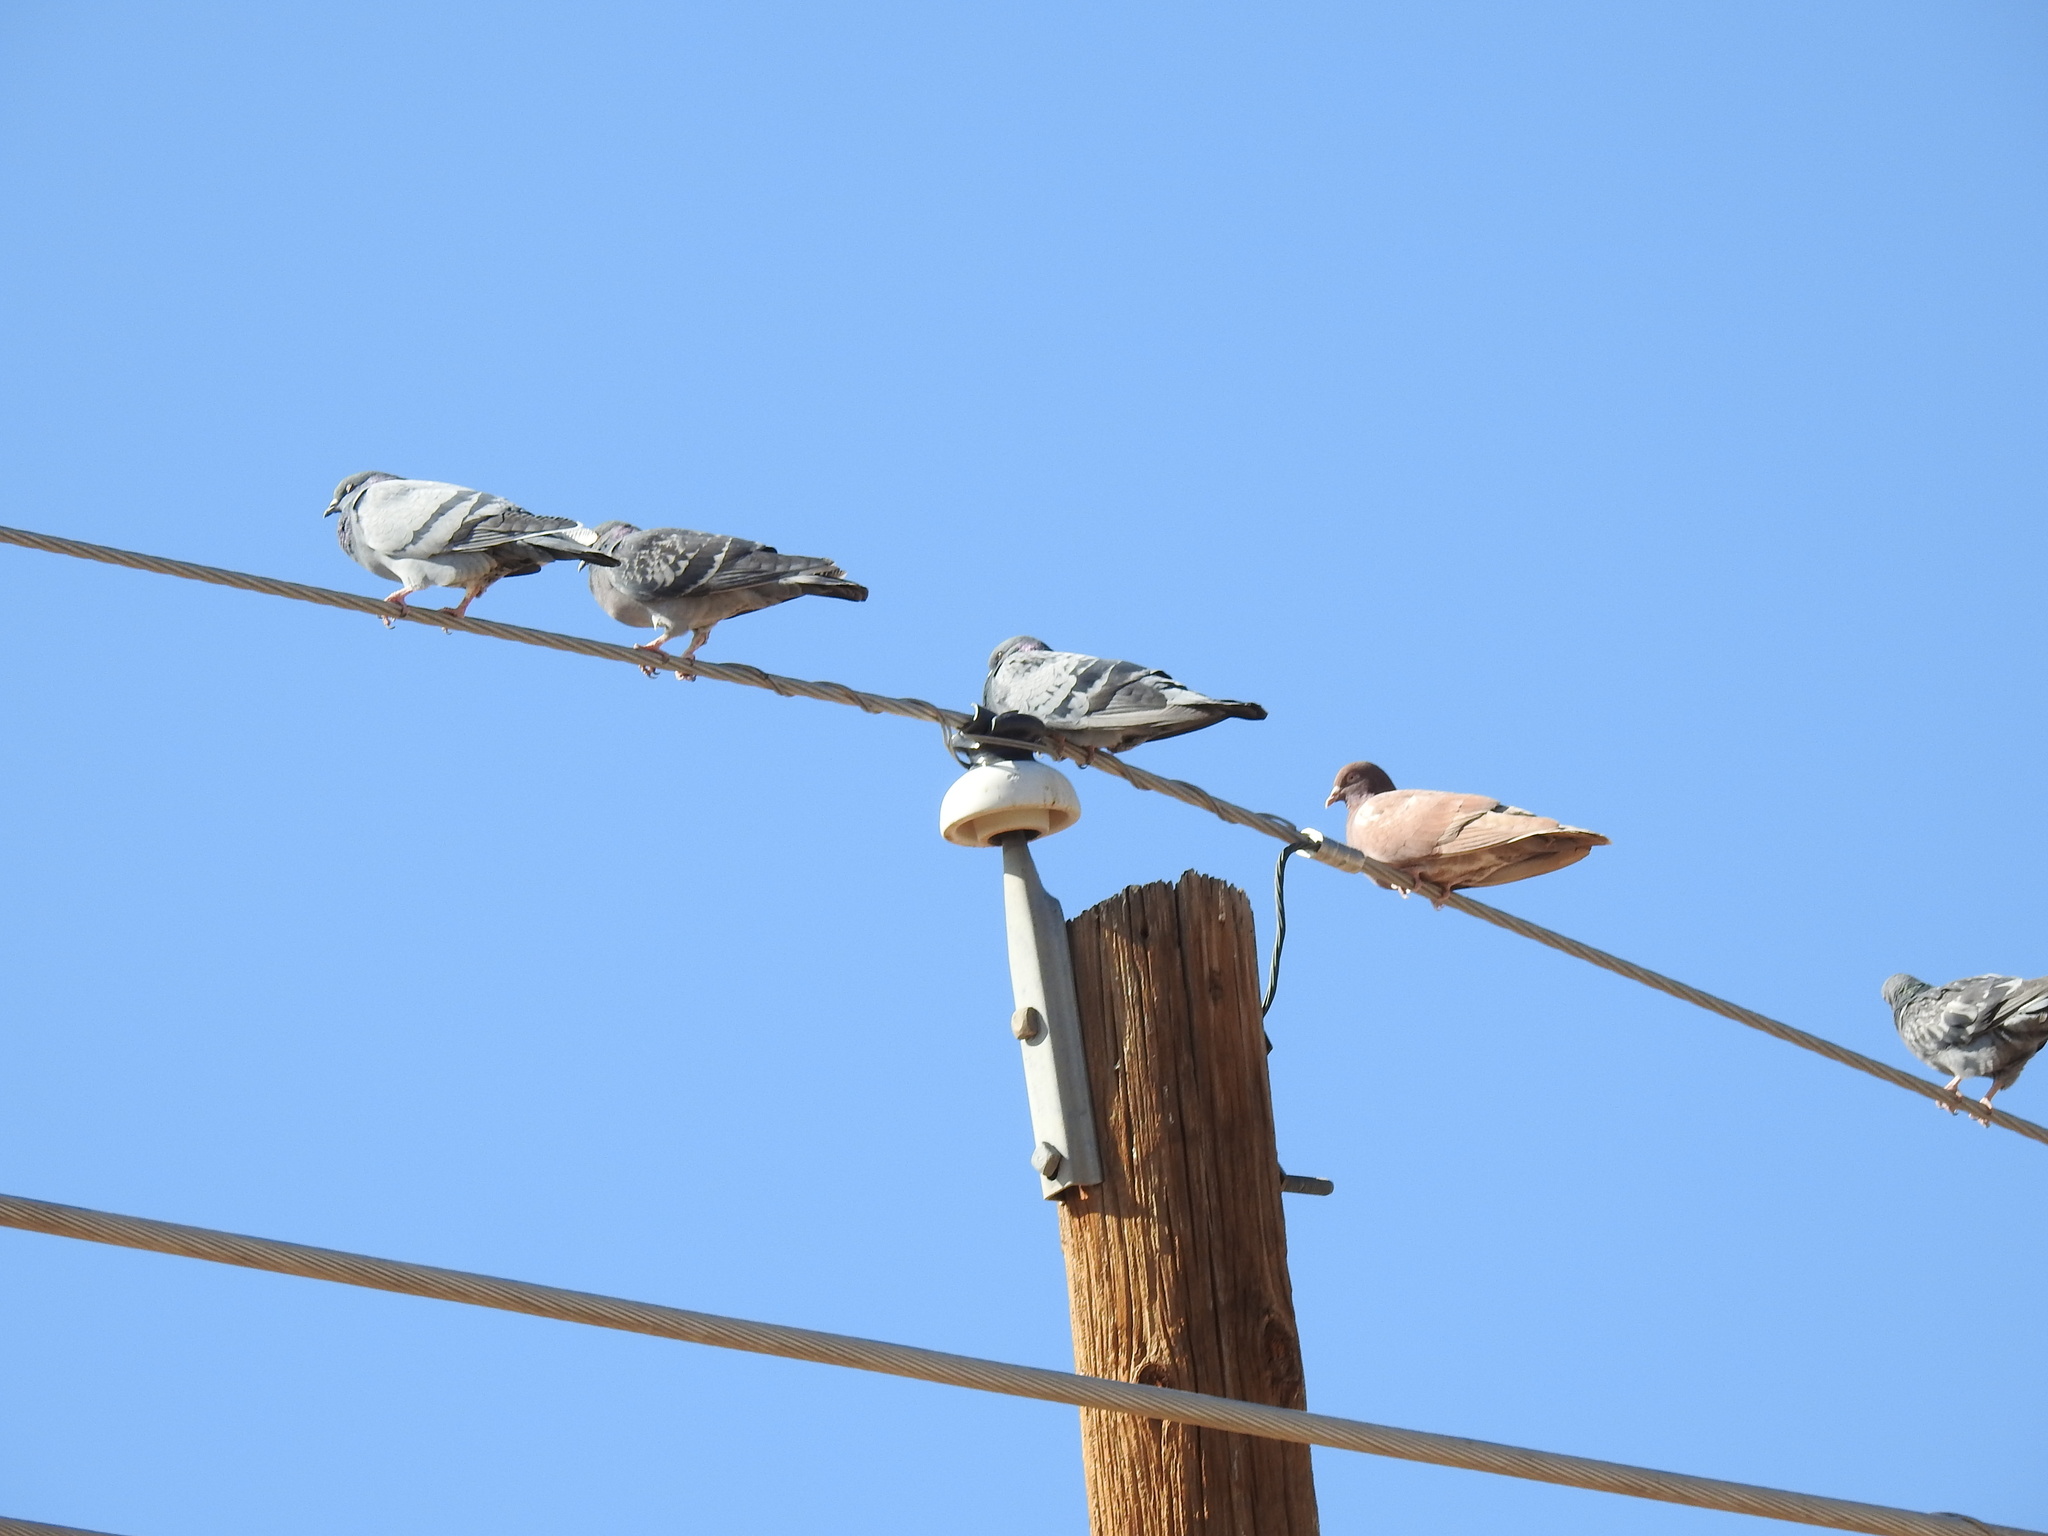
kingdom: Animalia
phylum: Chordata
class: Aves
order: Columbiformes
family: Columbidae
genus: Columba
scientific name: Columba livia
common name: Rock pigeon
